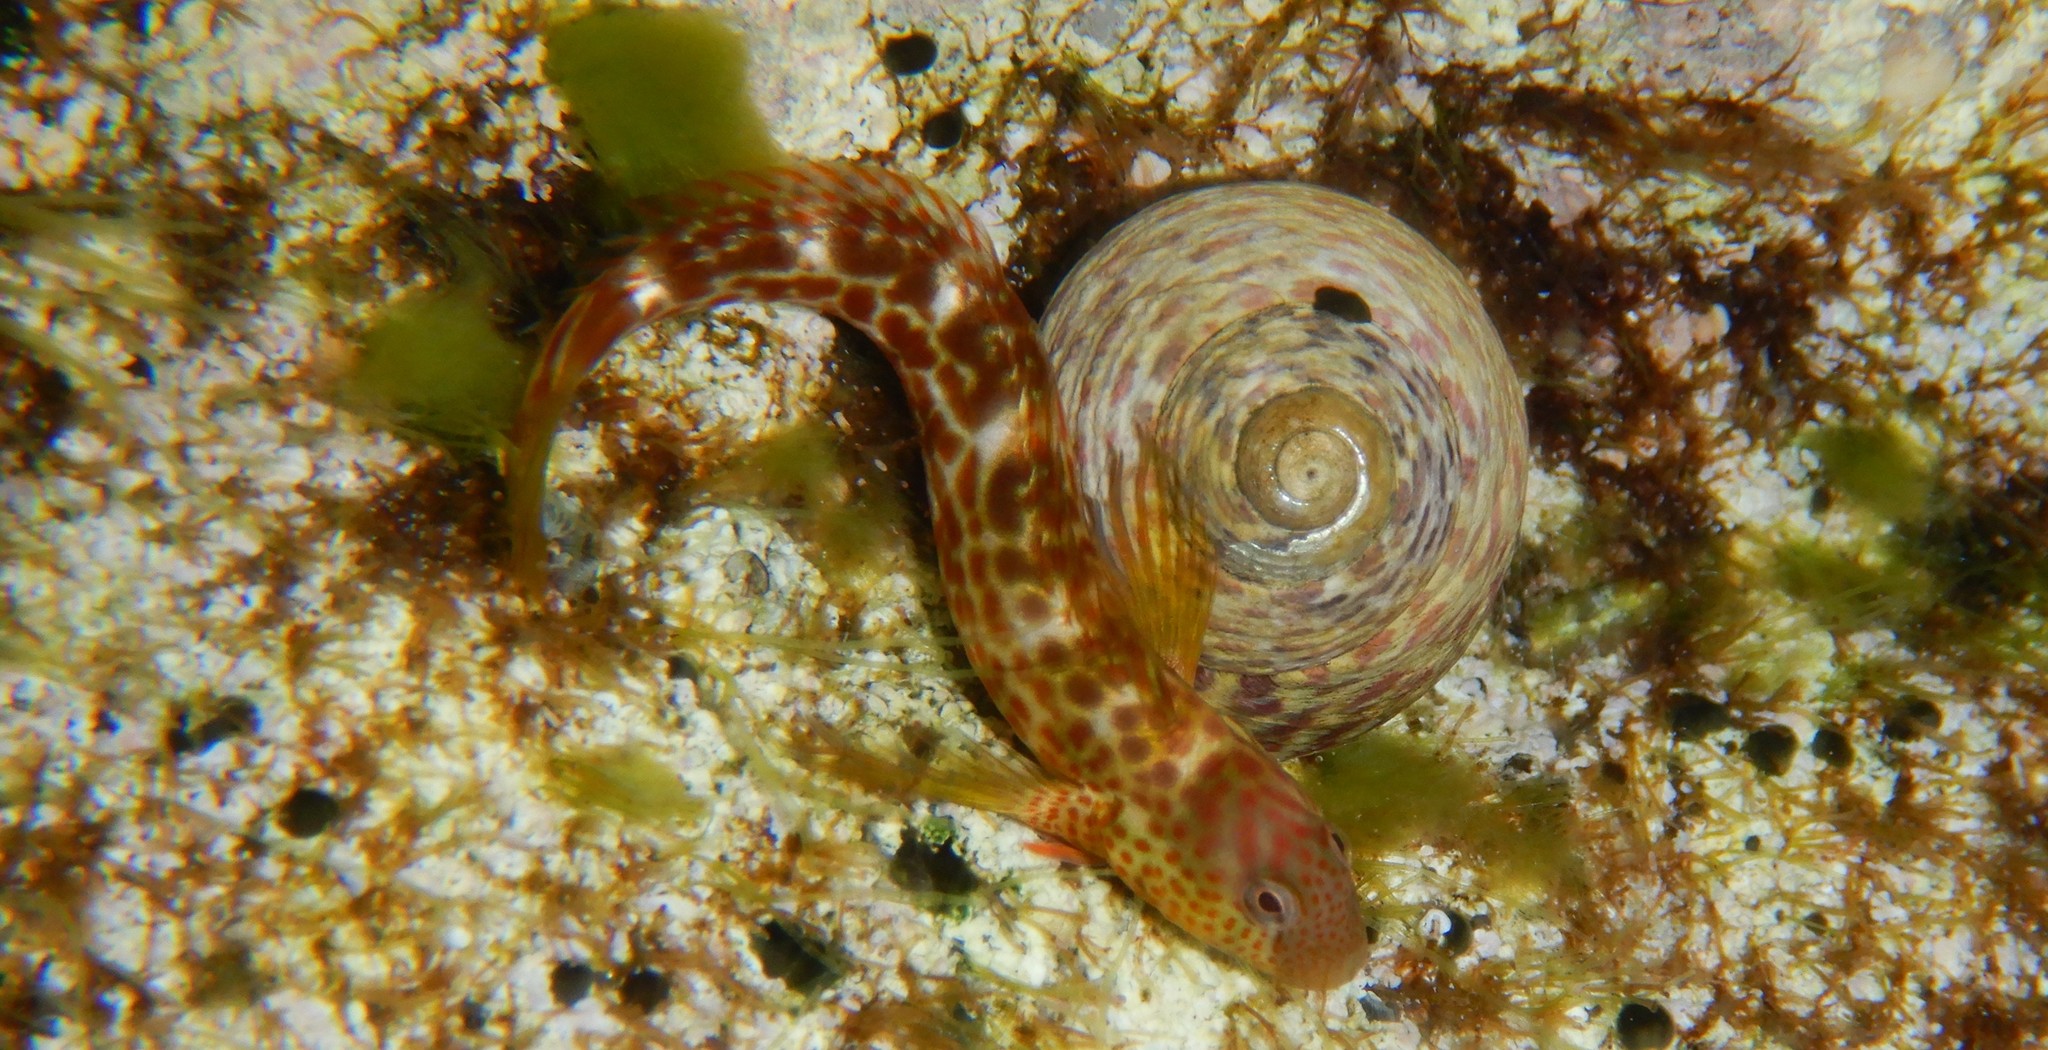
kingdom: Animalia
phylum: Chordata
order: Perciformes
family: Blenniidae
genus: Microlipophrys
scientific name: Microlipophrys canevae
